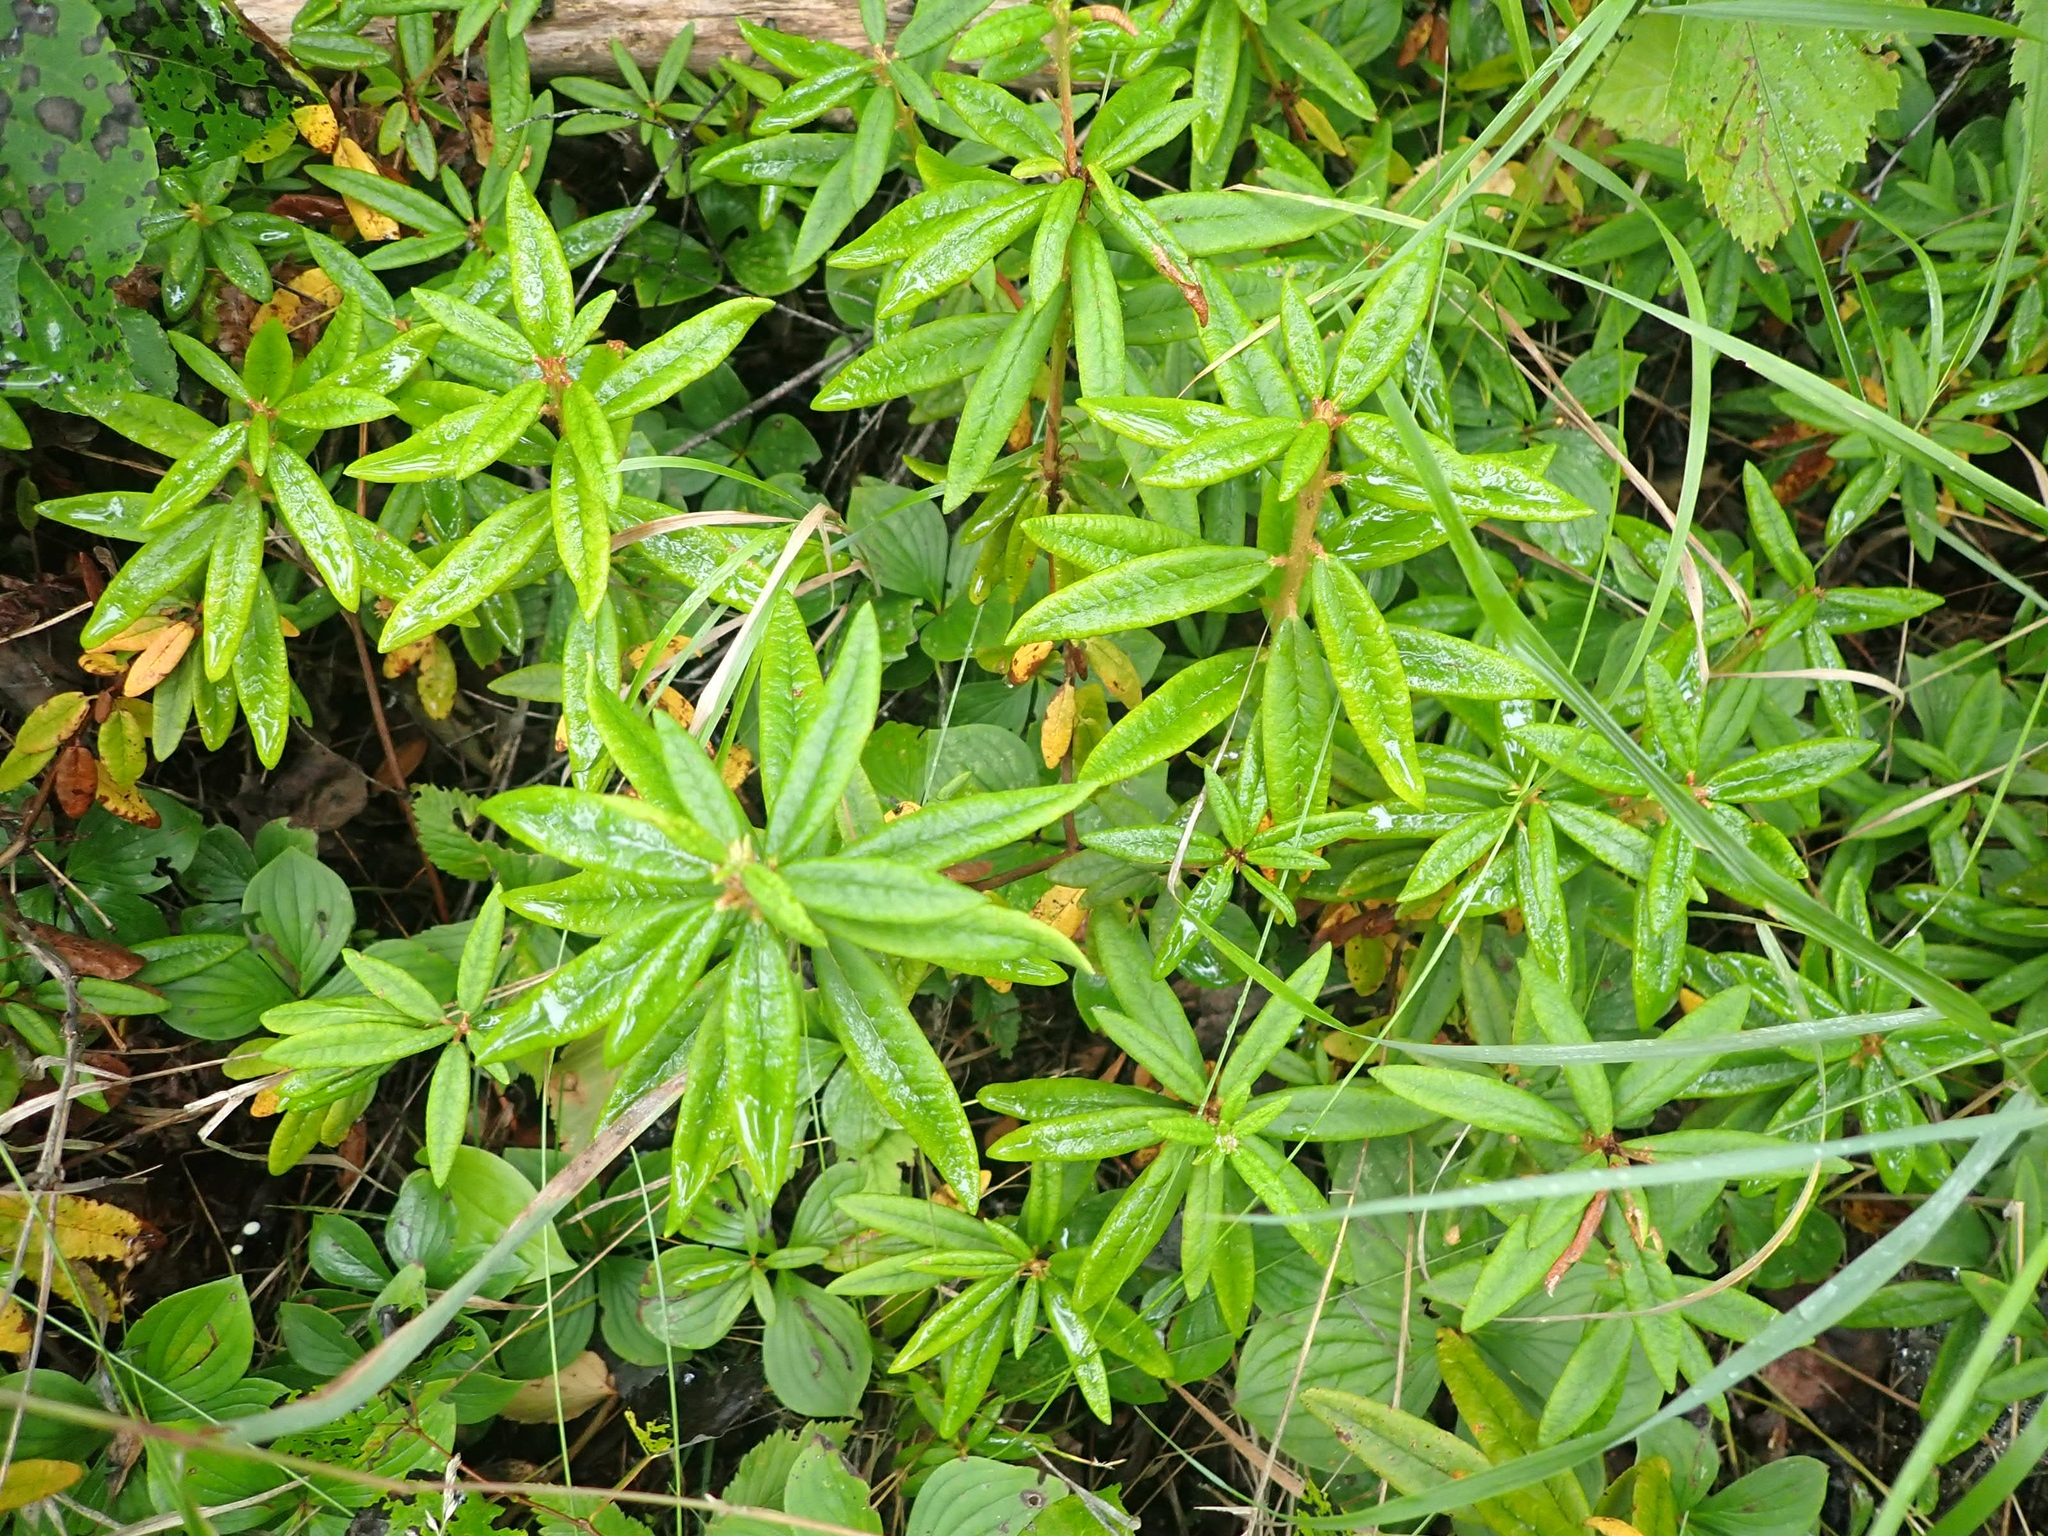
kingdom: Plantae
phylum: Tracheophyta
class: Magnoliopsida
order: Ericales
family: Ericaceae
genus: Rhododendron
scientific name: Rhododendron groenlandicum
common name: Bog labrador tea
